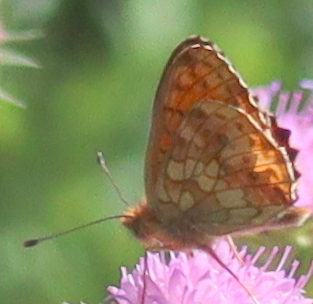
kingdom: Animalia
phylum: Arthropoda
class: Insecta
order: Lepidoptera
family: Nymphalidae
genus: Brenthis
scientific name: Brenthis ino
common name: Lesser marbled fritillary
